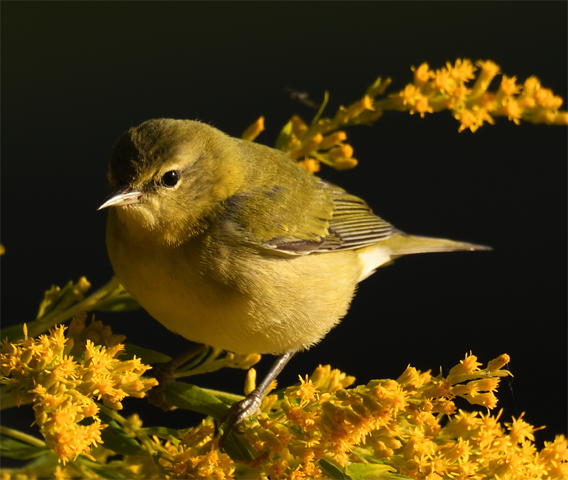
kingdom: Animalia
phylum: Chordata
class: Aves
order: Passeriformes
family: Parulidae
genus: Leiothlypis
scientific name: Leiothlypis peregrina
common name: Tennessee warbler
